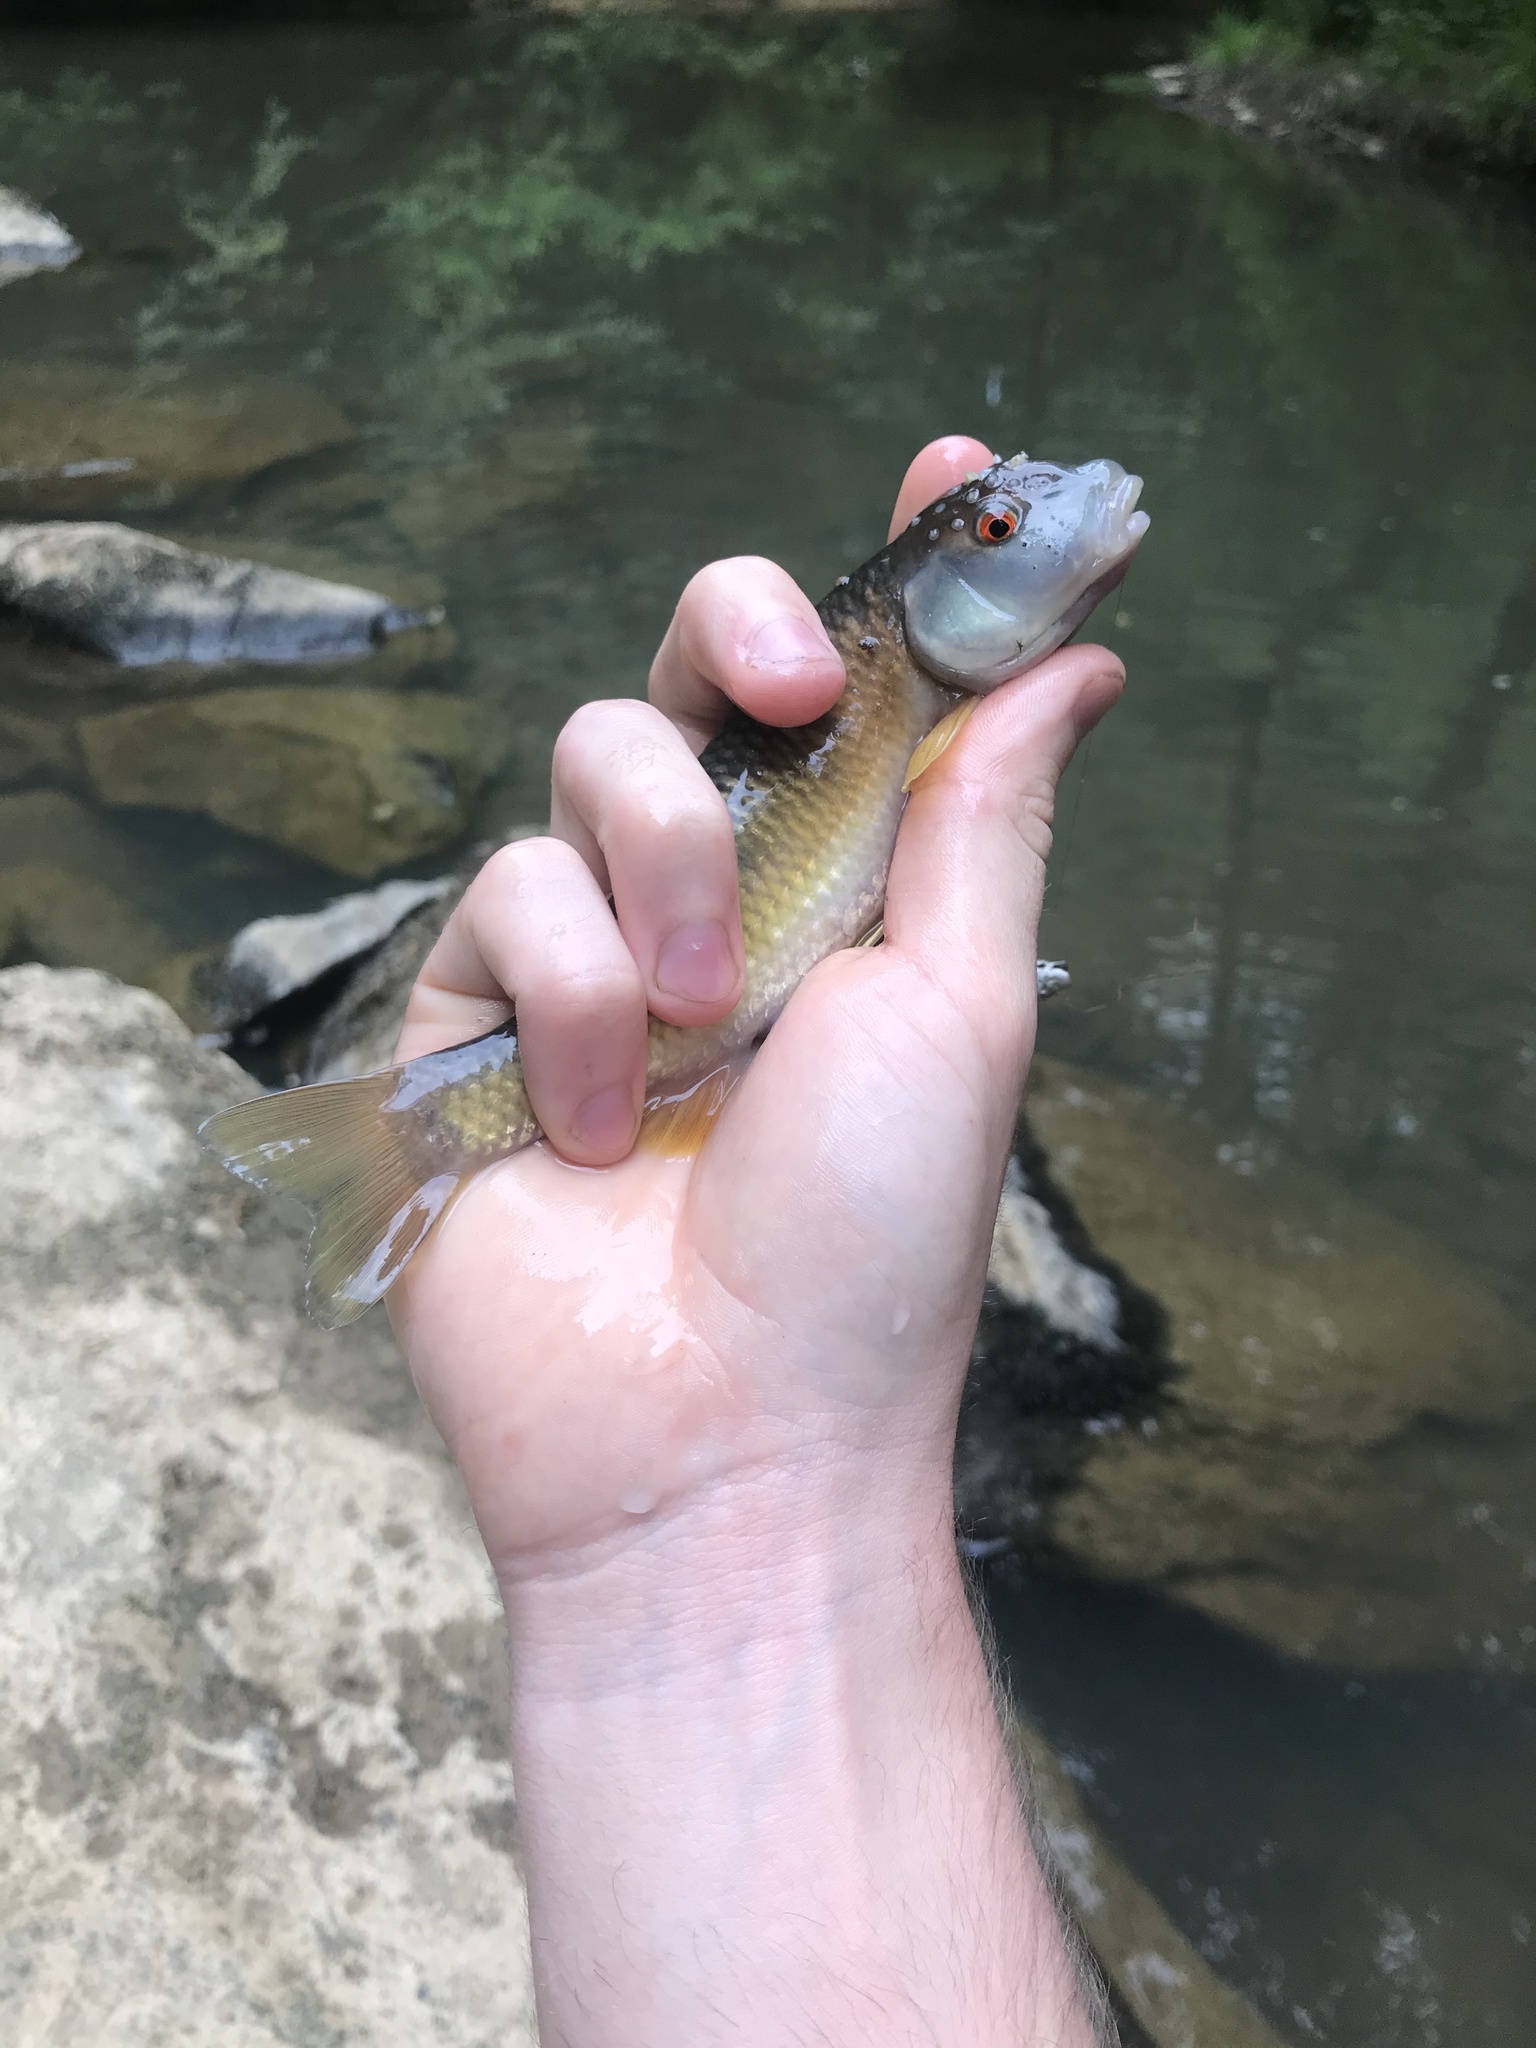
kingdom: Animalia
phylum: Chordata
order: Cypriniformes
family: Cyprinidae
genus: Nocomis
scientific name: Nocomis leptocephalus
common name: Bluehead chub
